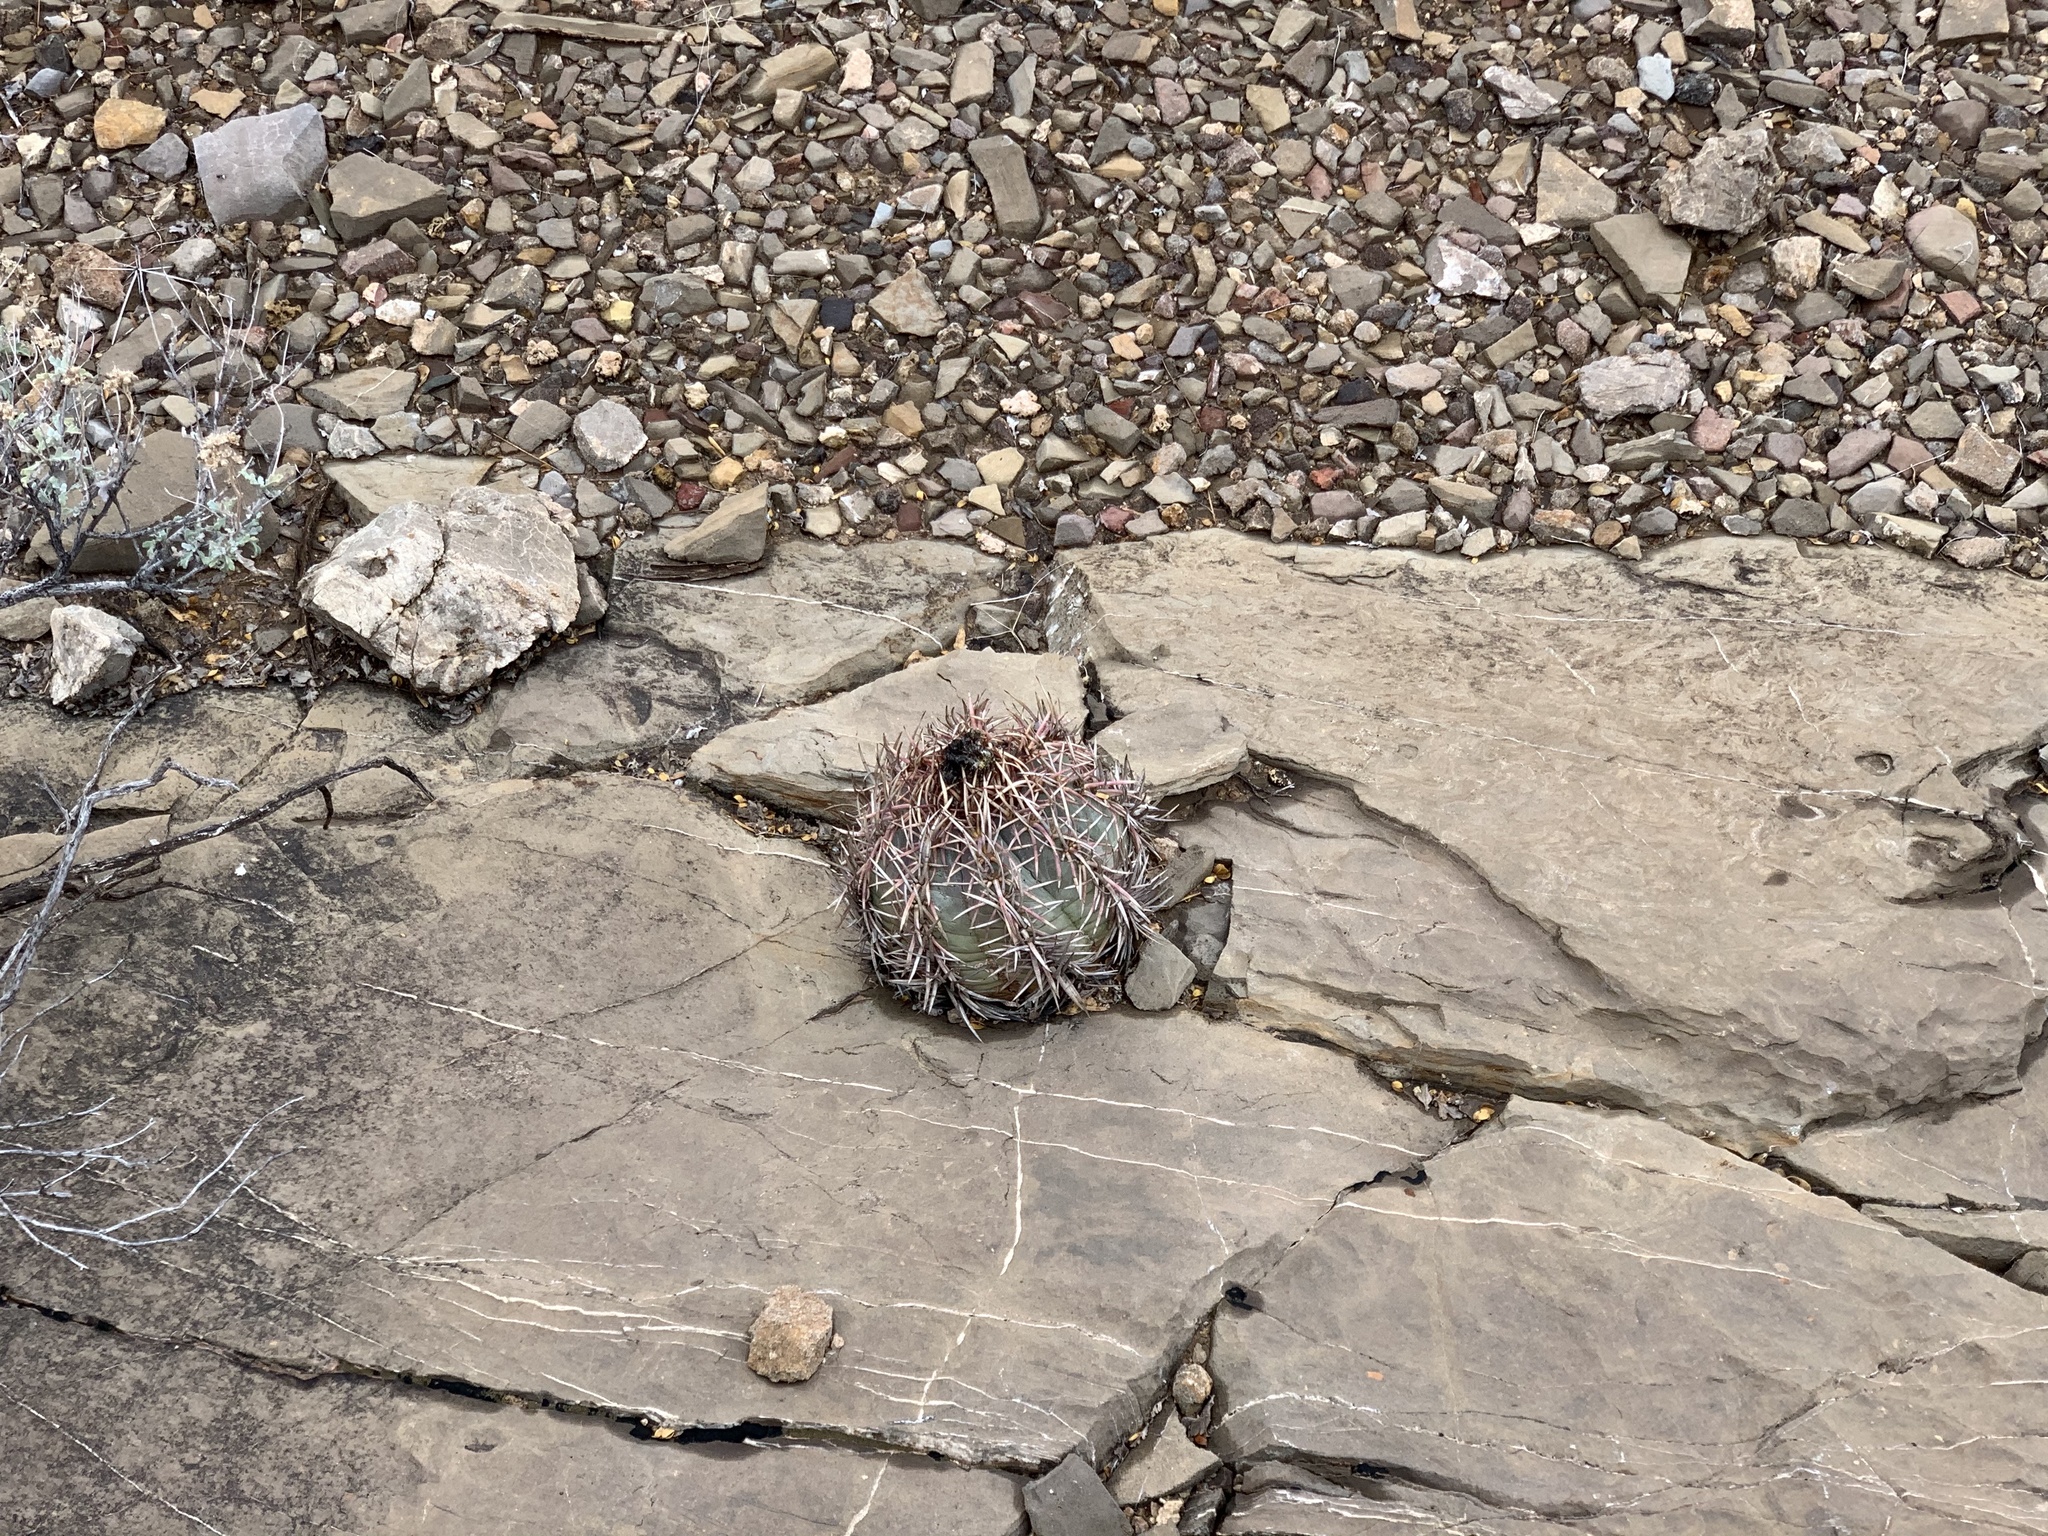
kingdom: Plantae
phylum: Tracheophyta
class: Magnoliopsida
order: Caryophyllales
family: Cactaceae
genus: Echinocactus
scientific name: Echinocactus horizonthalonius
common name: Devilshead
